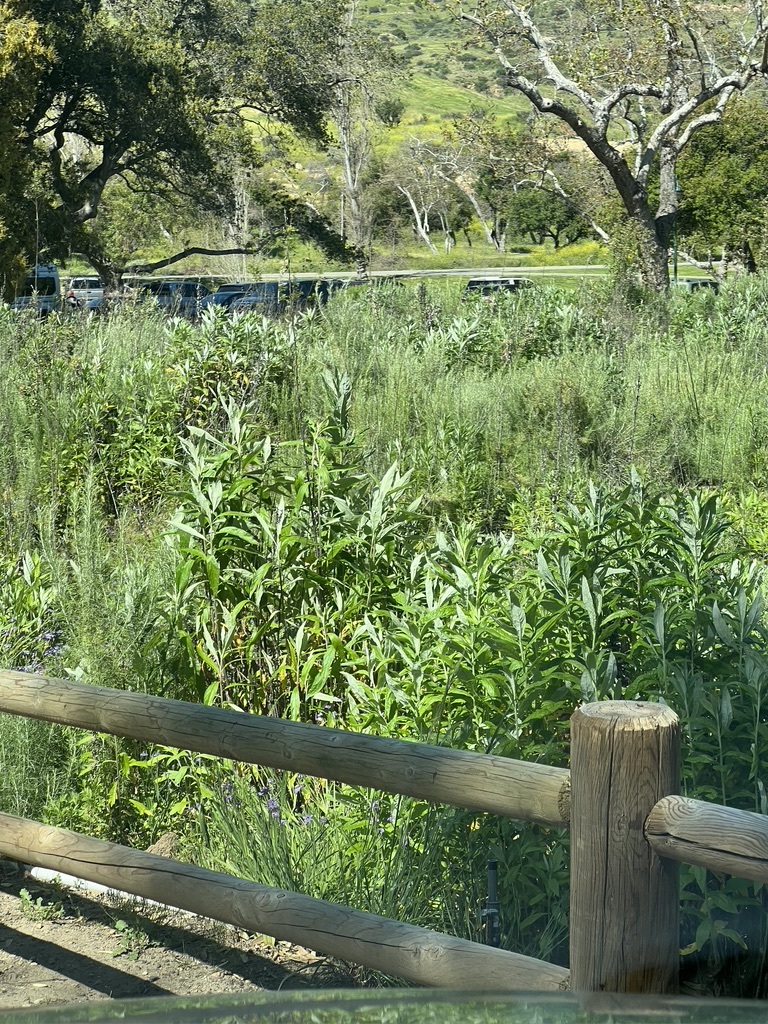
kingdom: Plantae
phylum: Tracheophyta
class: Magnoliopsida
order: Asterales
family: Asteraceae
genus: Artemisia
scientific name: Artemisia douglasiana
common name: Northwest mugwort
